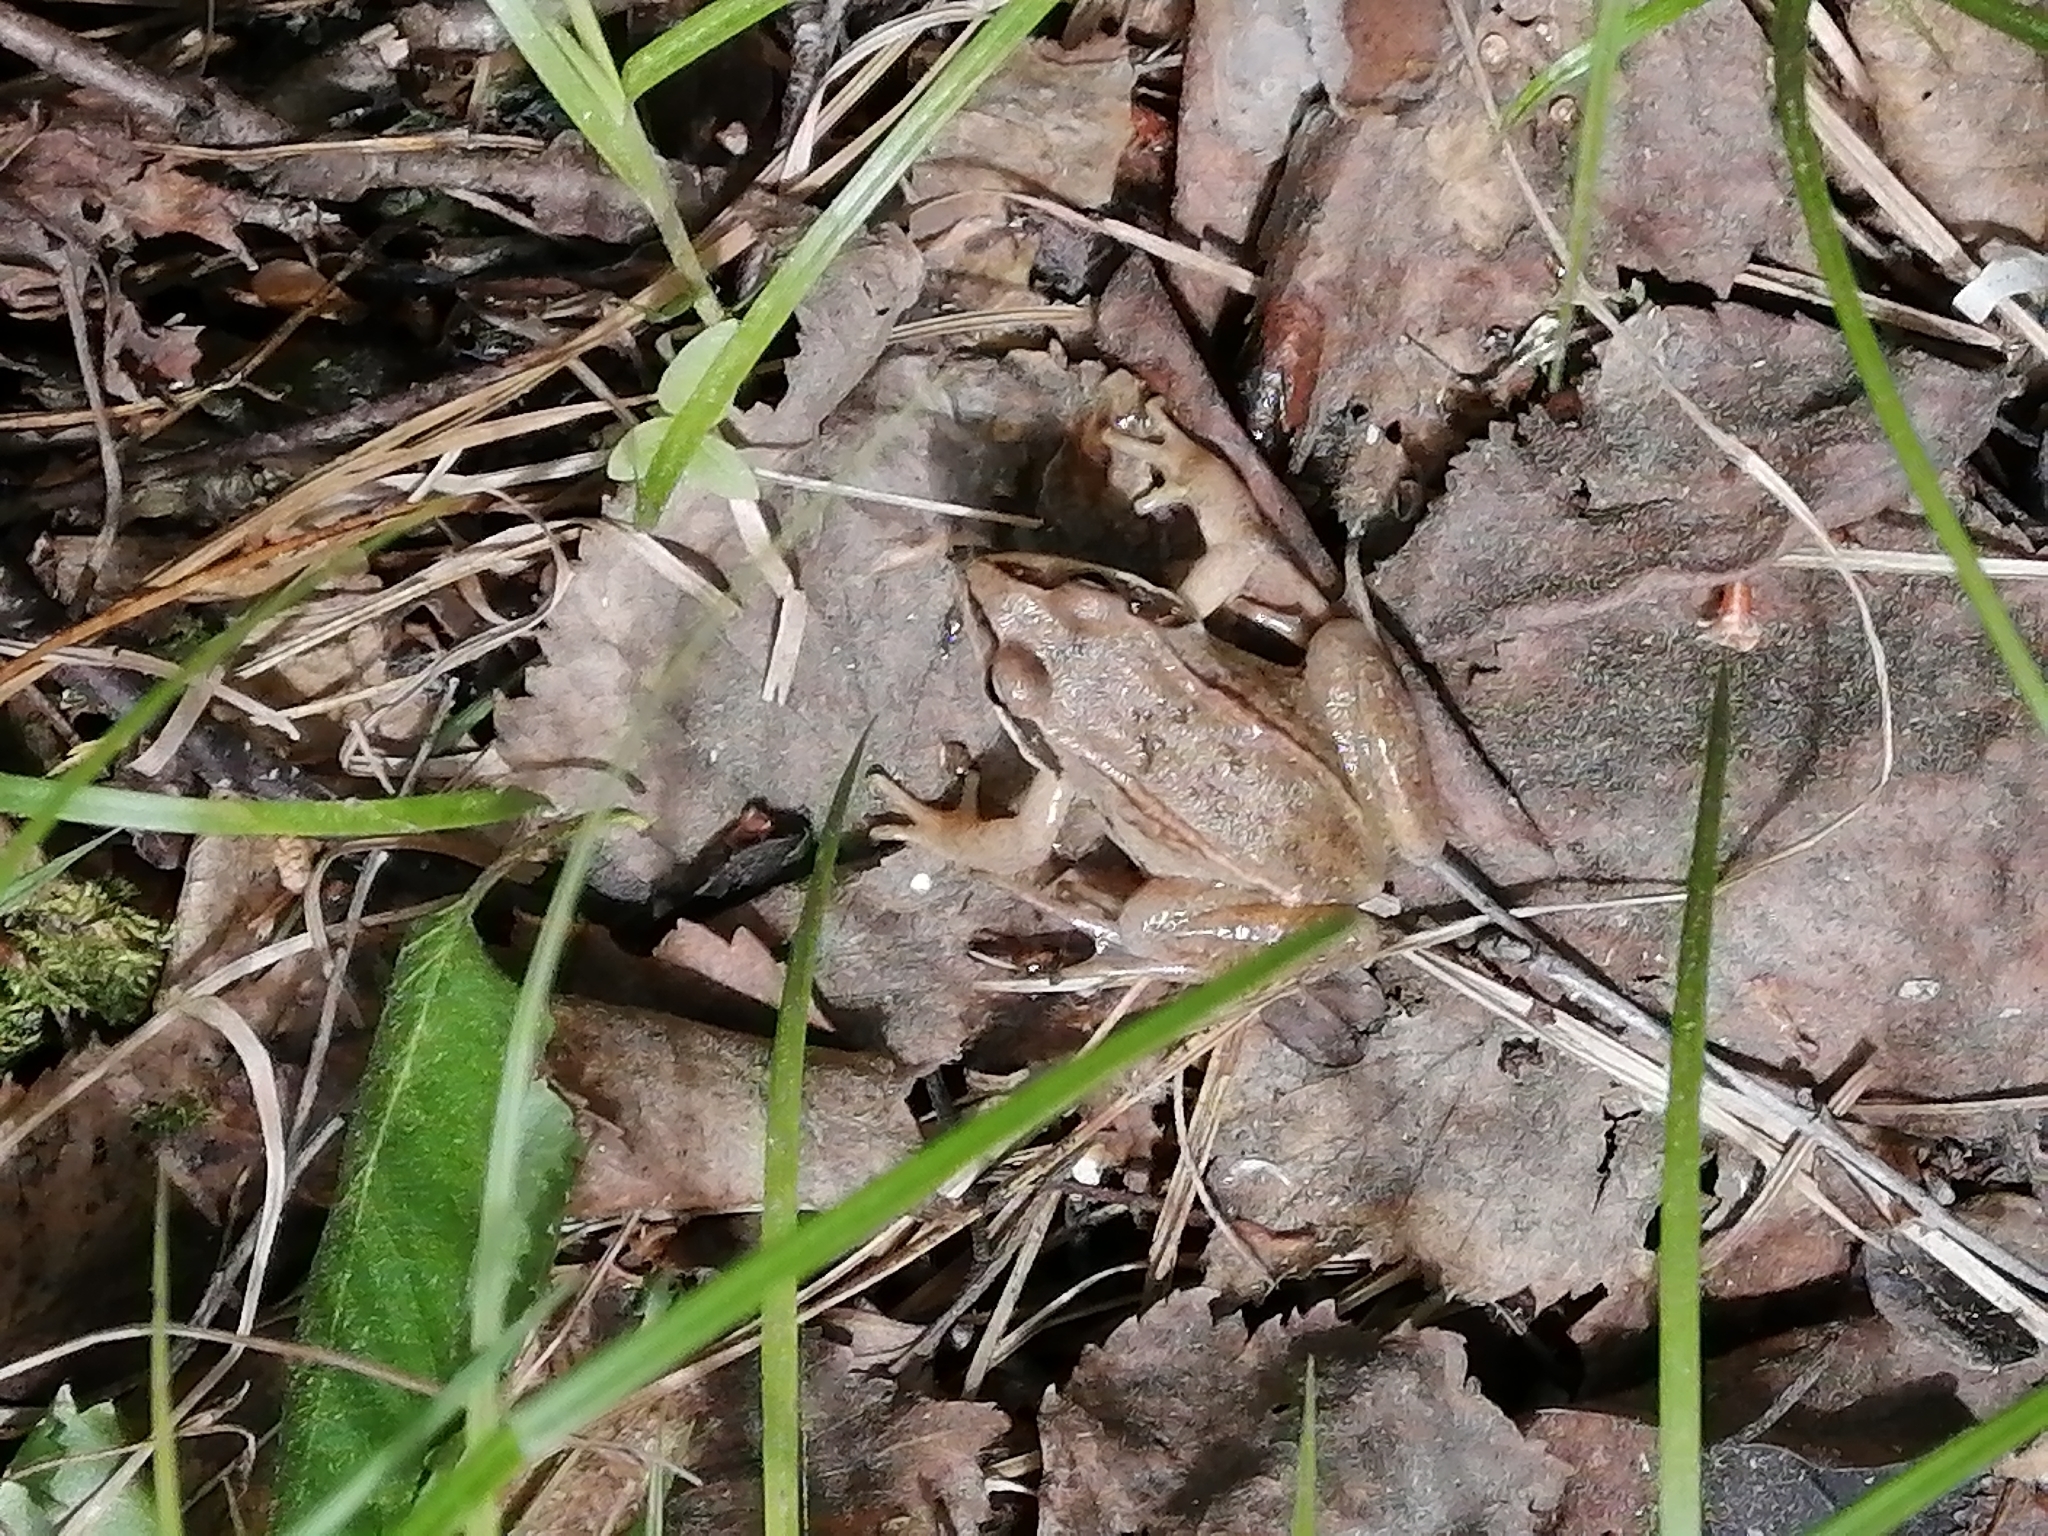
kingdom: Animalia
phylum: Chordata
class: Amphibia
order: Anura
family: Ranidae
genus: Rana
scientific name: Rana arvalis
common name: Moor frog
